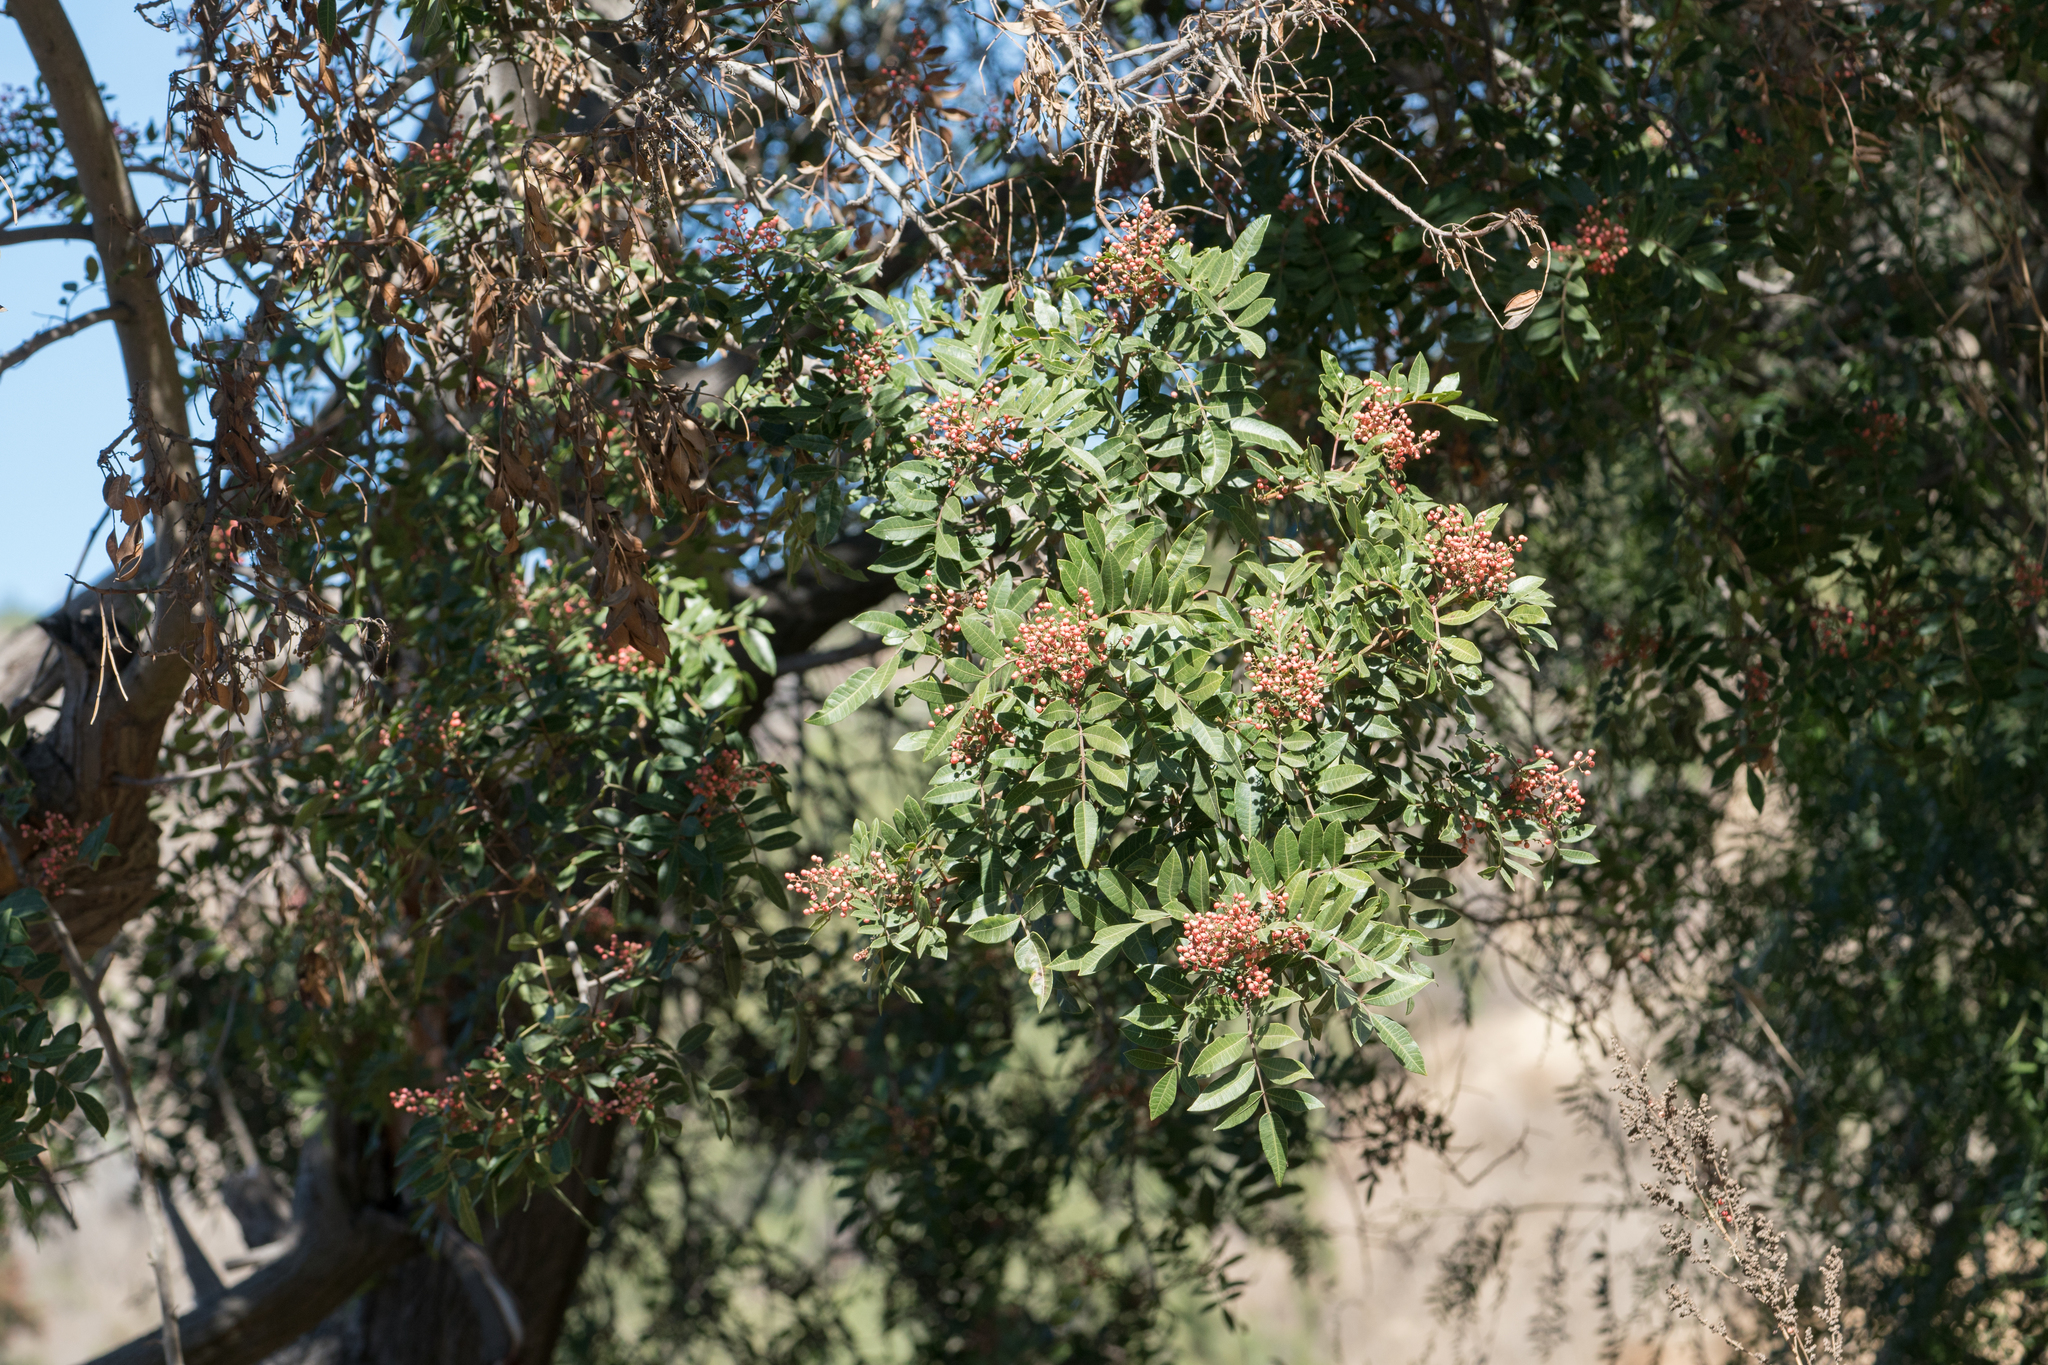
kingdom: Plantae
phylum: Tracheophyta
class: Magnoliopsida
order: Sapindales
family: Anacardiaceae
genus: Schinus
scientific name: Schinus terebinthifolia
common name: Brazilian peppertree
